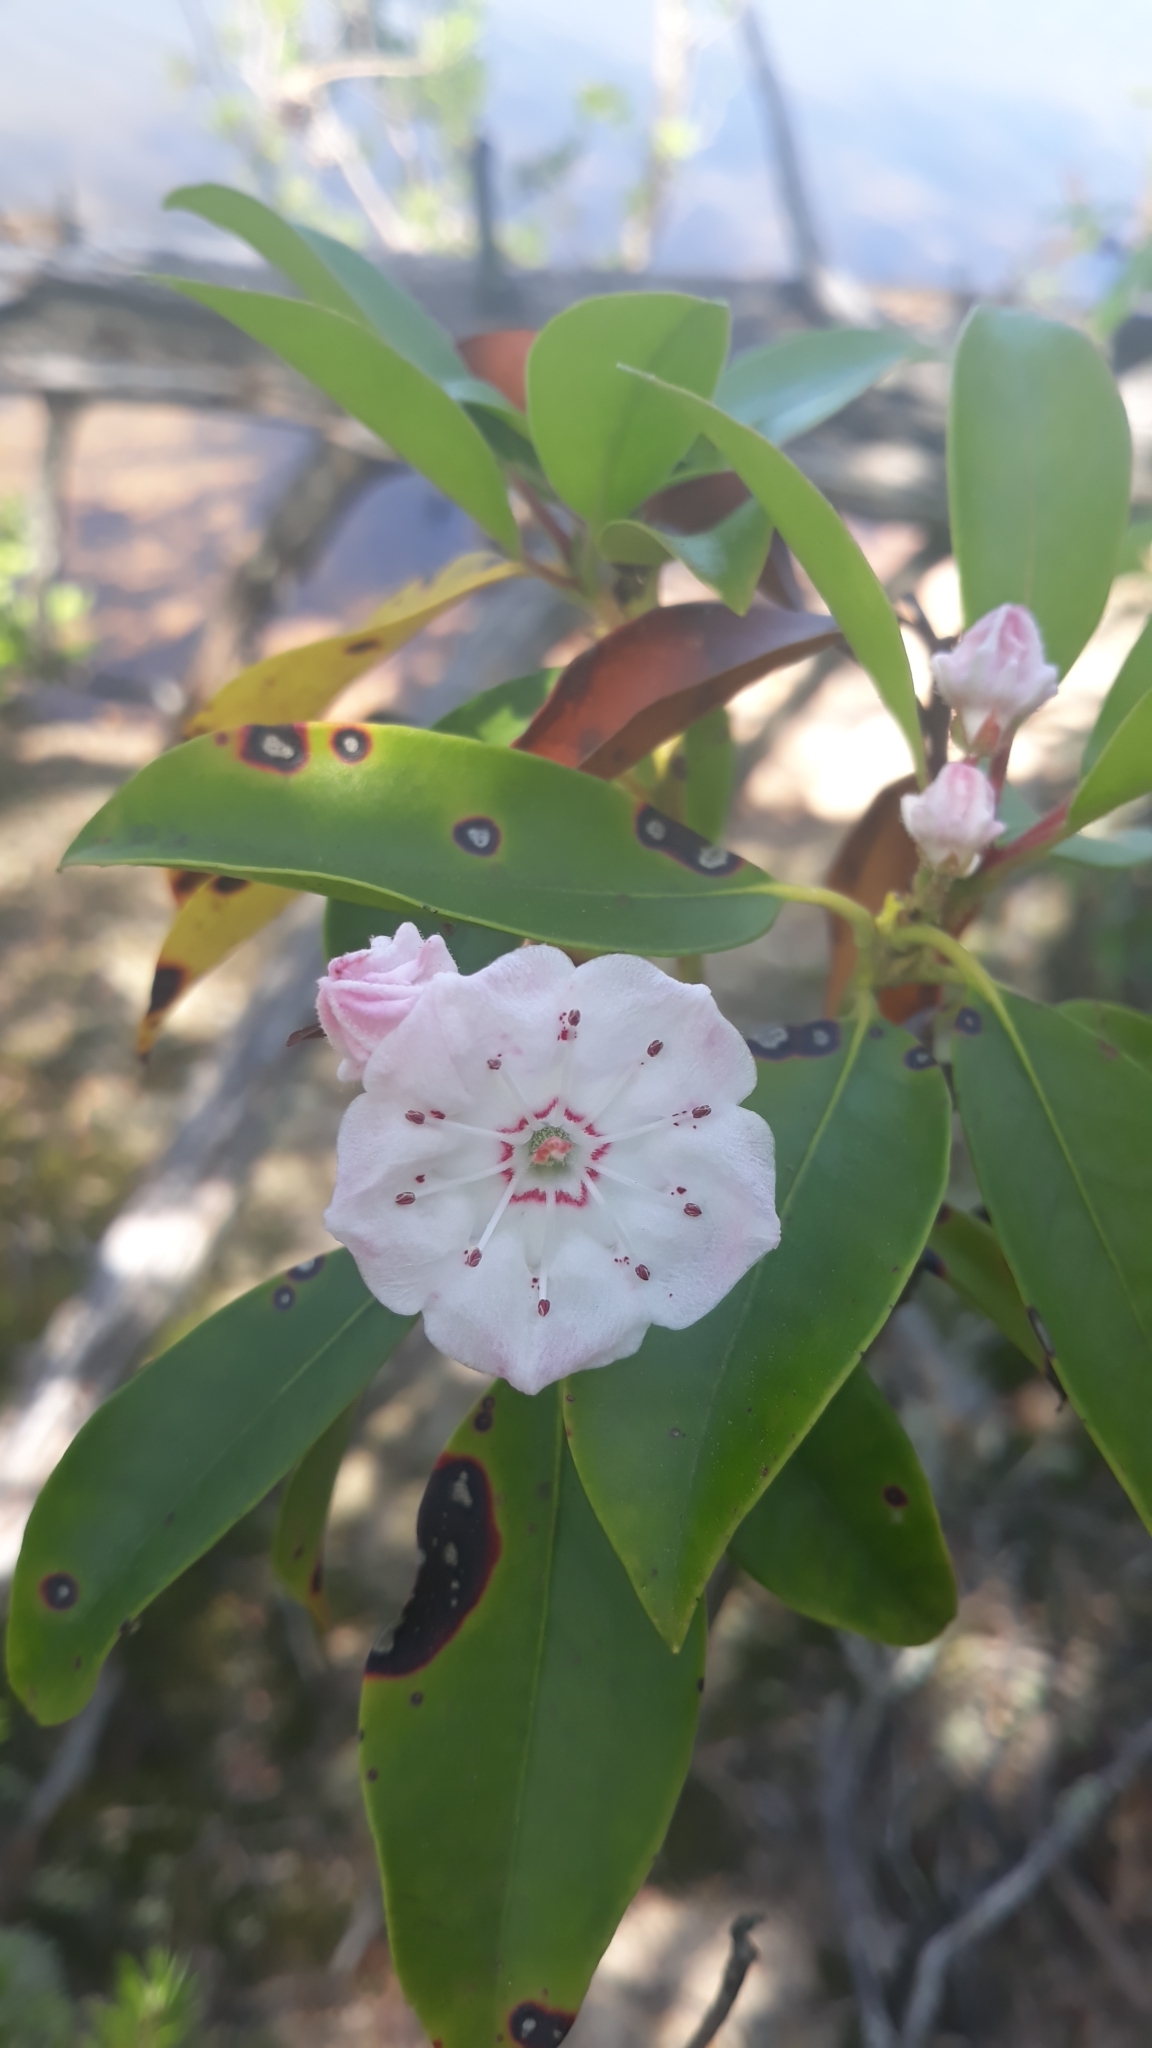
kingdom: Plantae
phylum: Tracheophyta
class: Magnoliopsida
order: Ericales
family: Ericaceae
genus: Kalmia
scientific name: Kalmia latifolia
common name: Mountain-laurel
